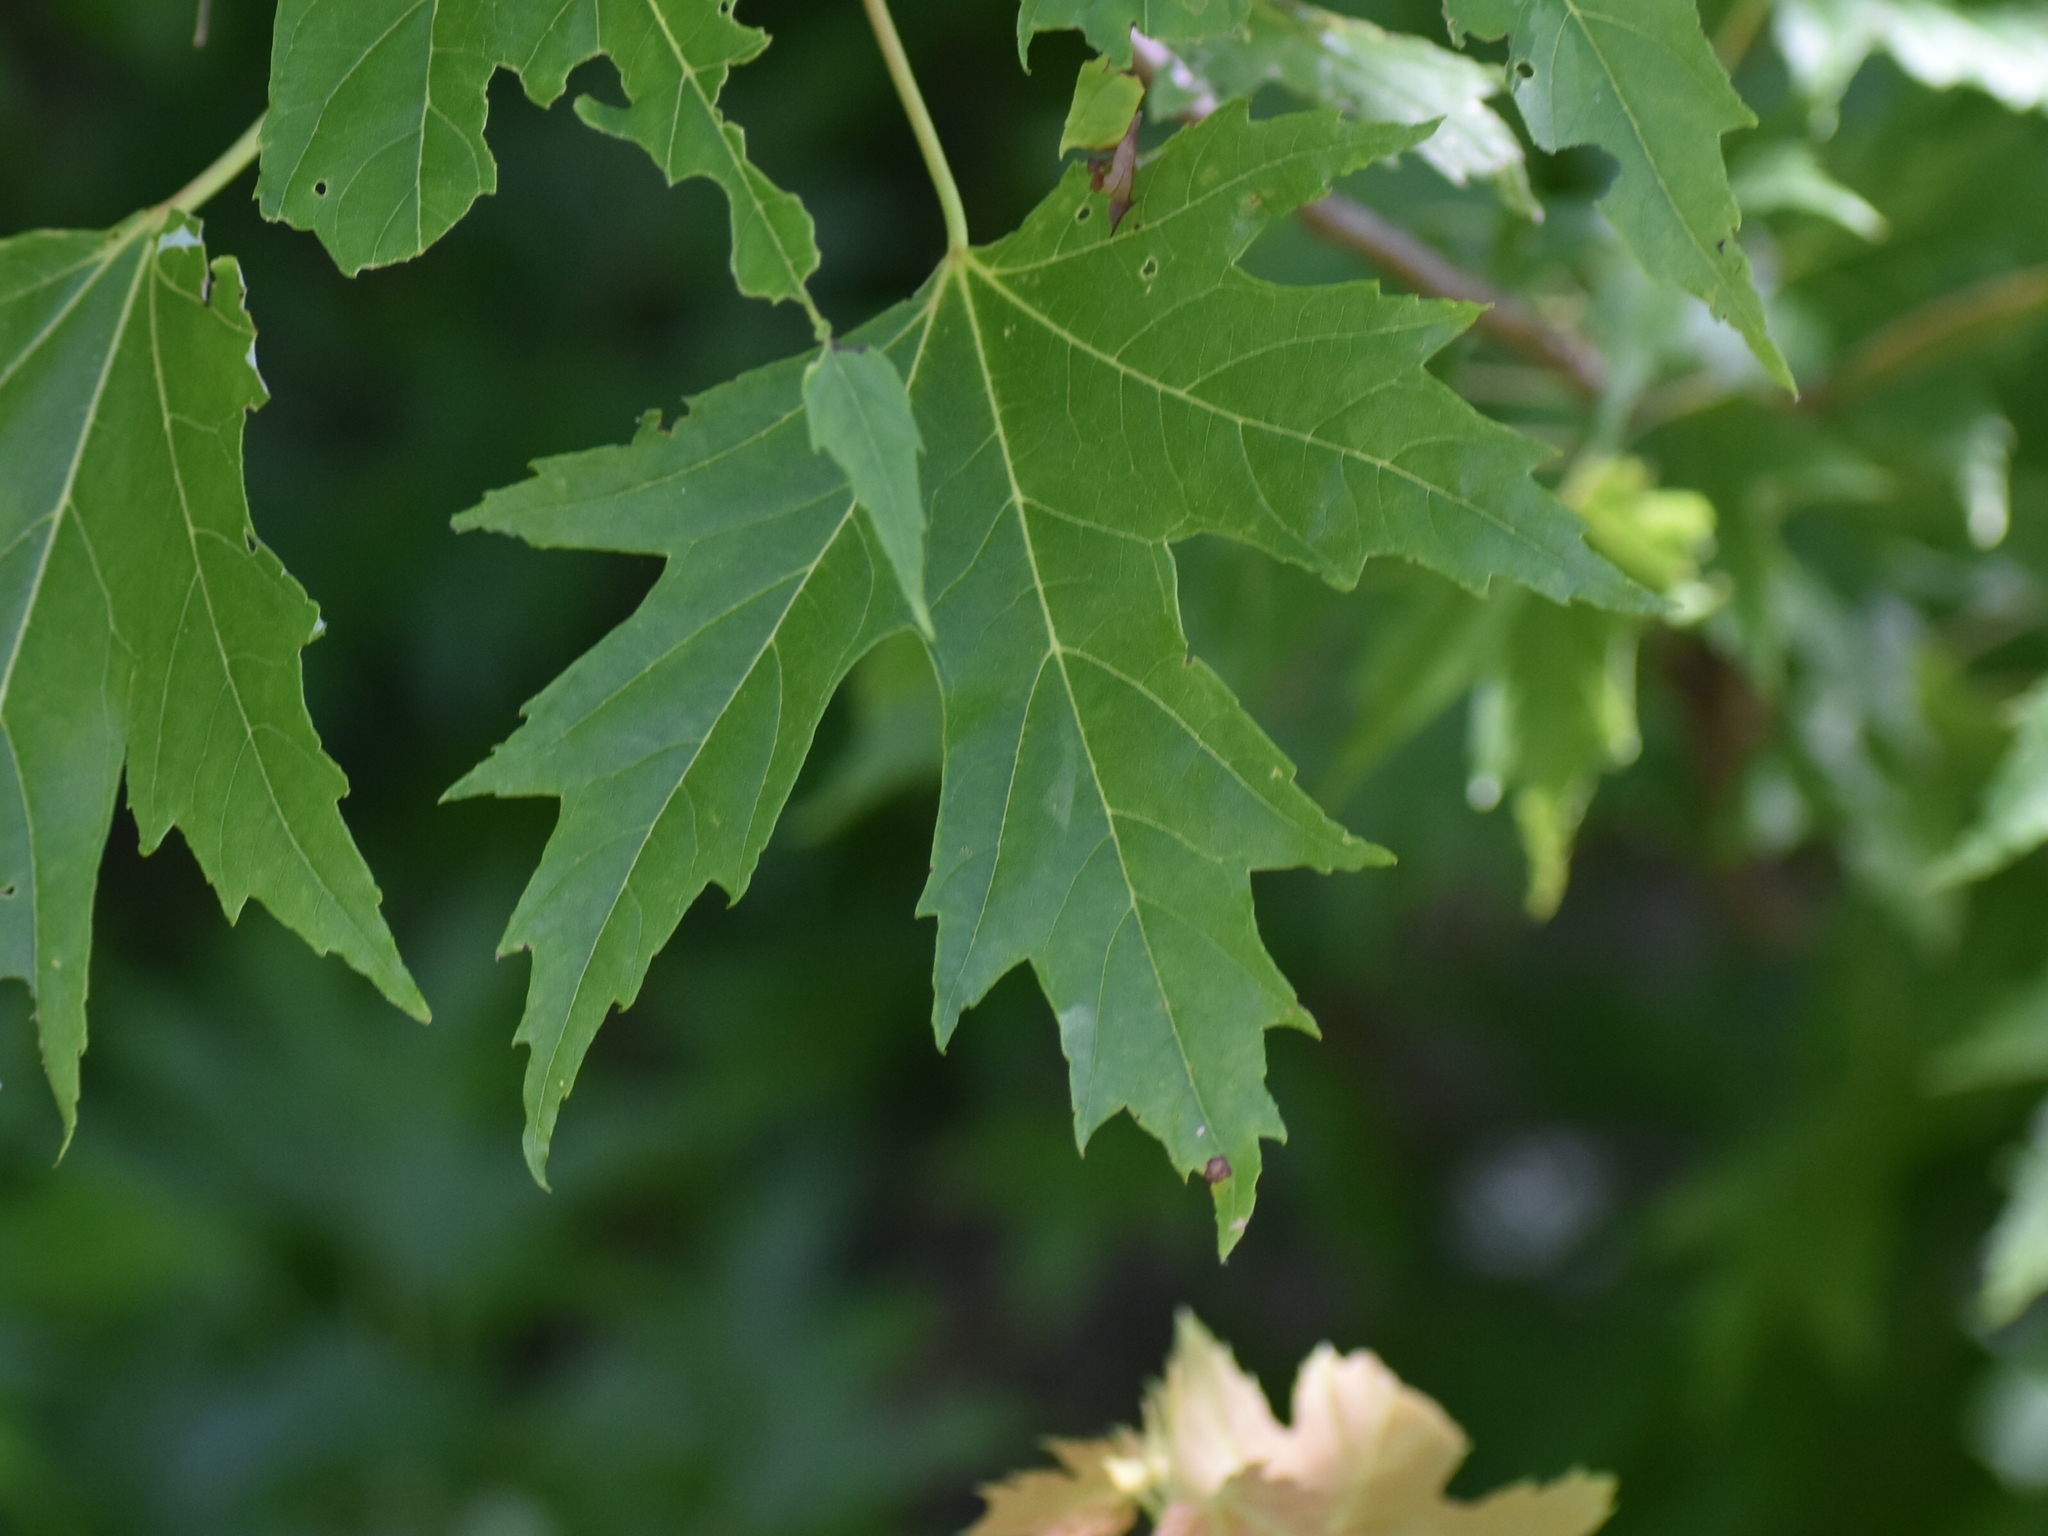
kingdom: Plantae
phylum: Tracheophyta
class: Magnoliopsida
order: Sapindales
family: Sapindaceae
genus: Acer
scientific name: Acer saccharinum
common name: Silver maple
